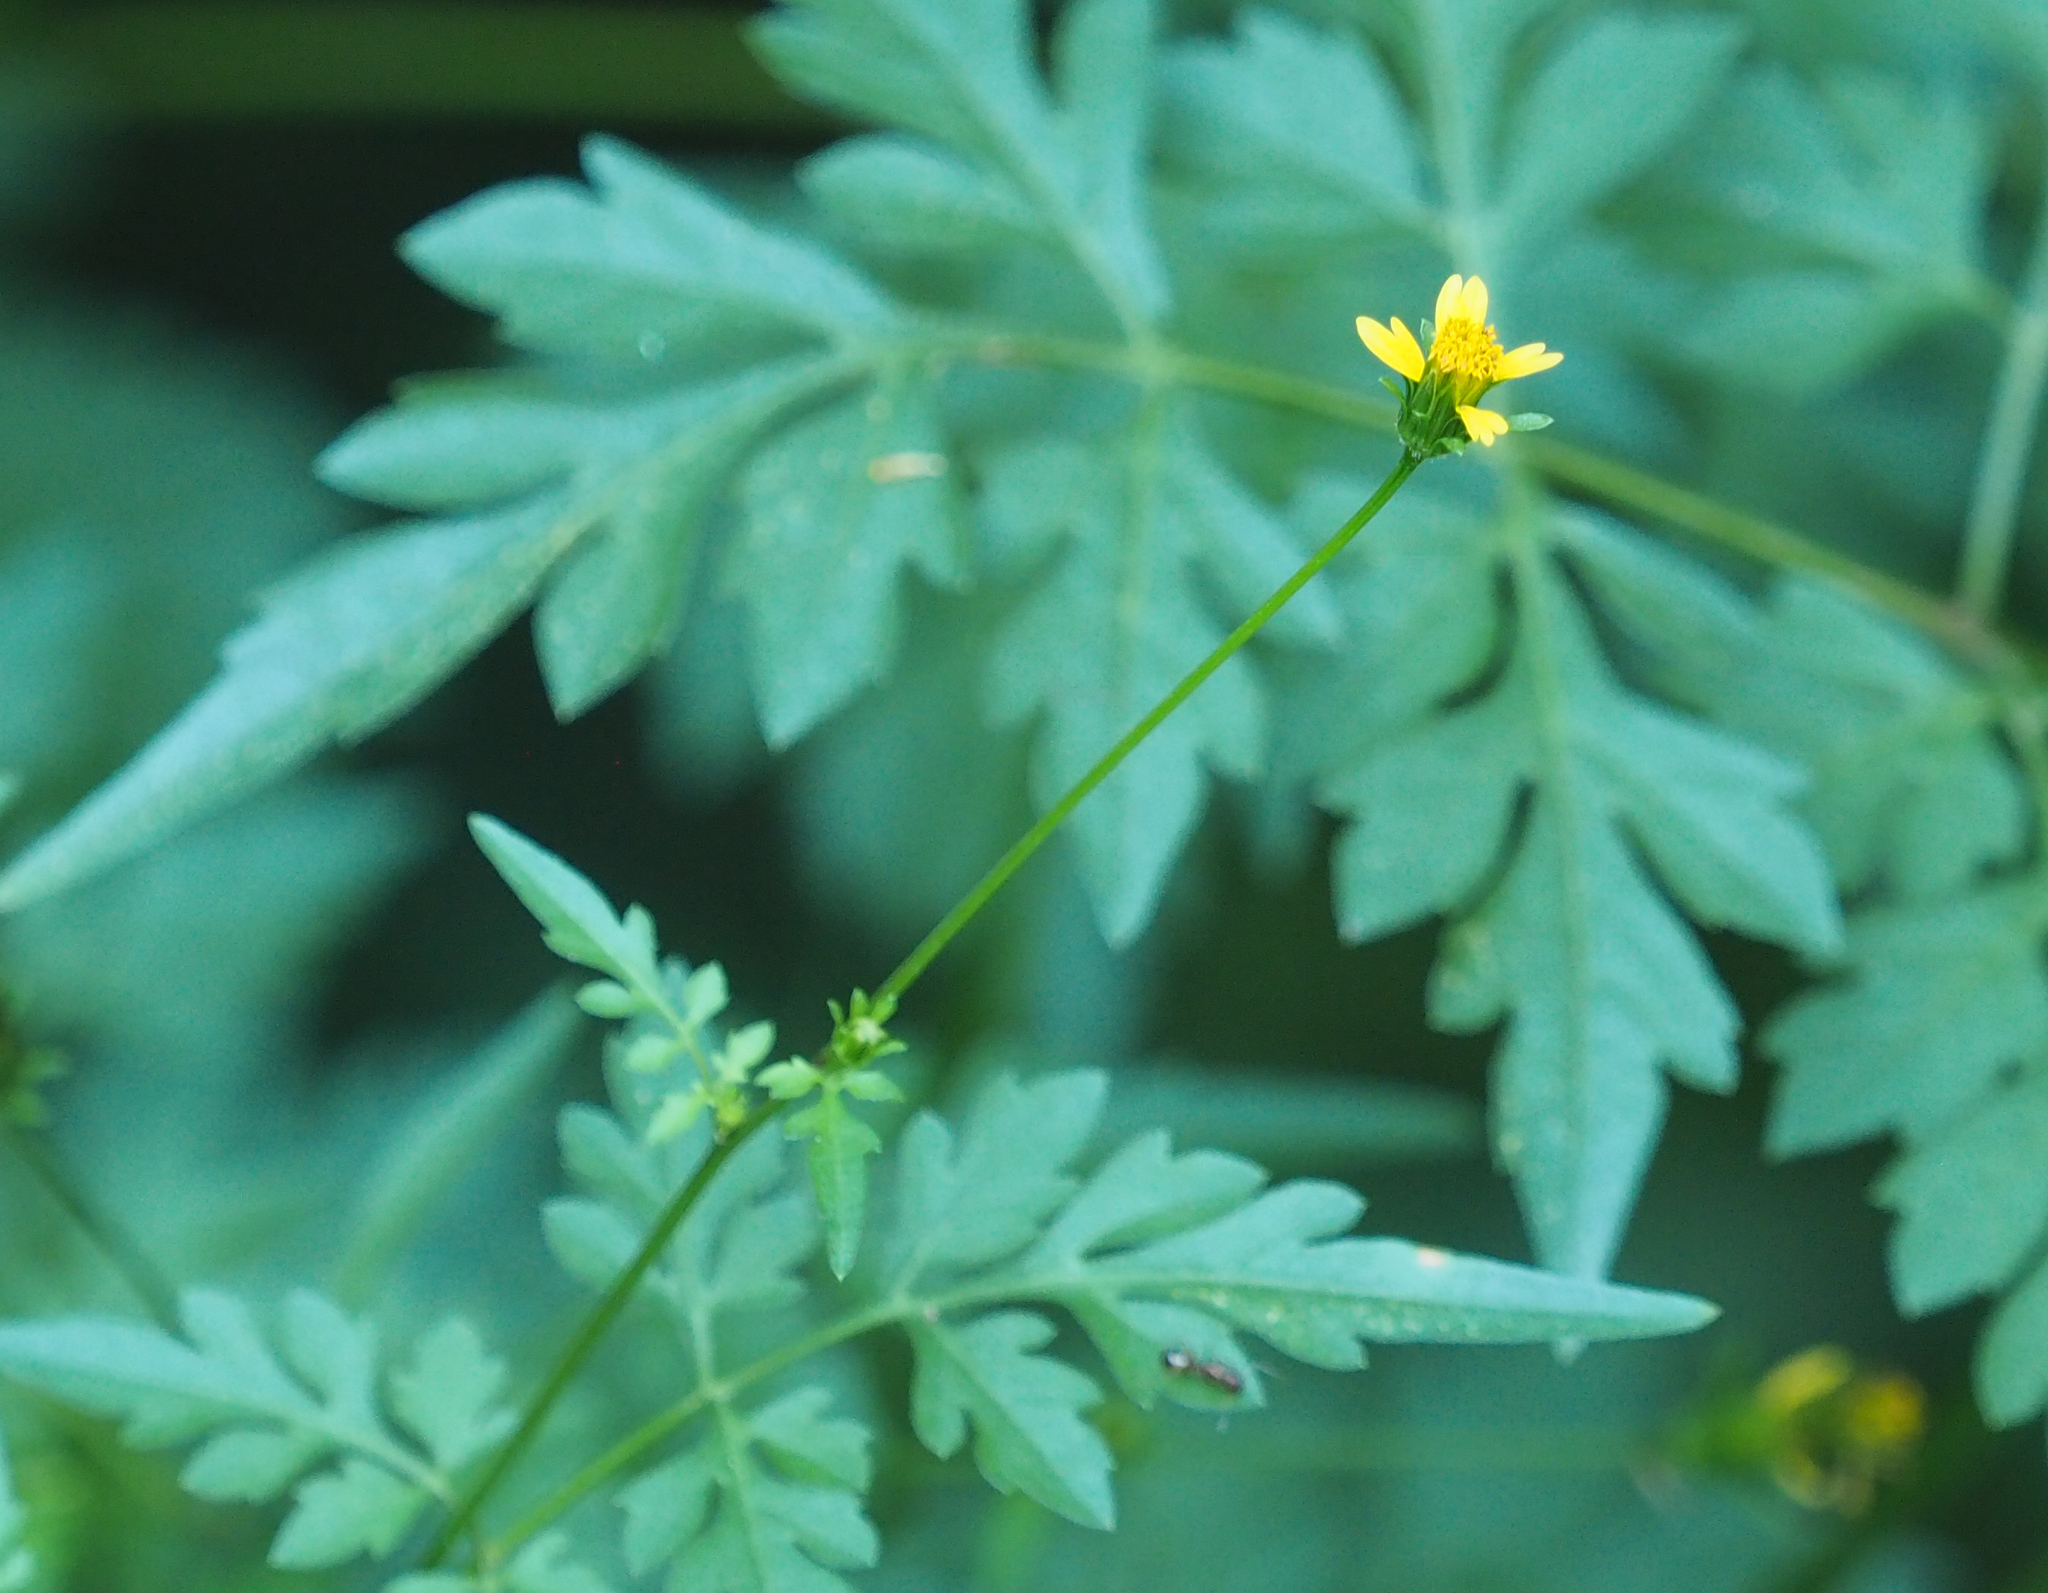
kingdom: Plantae
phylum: Tracheophyta
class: Magnoliopsida
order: Asterales
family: Asteraceae
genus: Bidens
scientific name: Bidens bipinnata
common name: Spanish-needles
